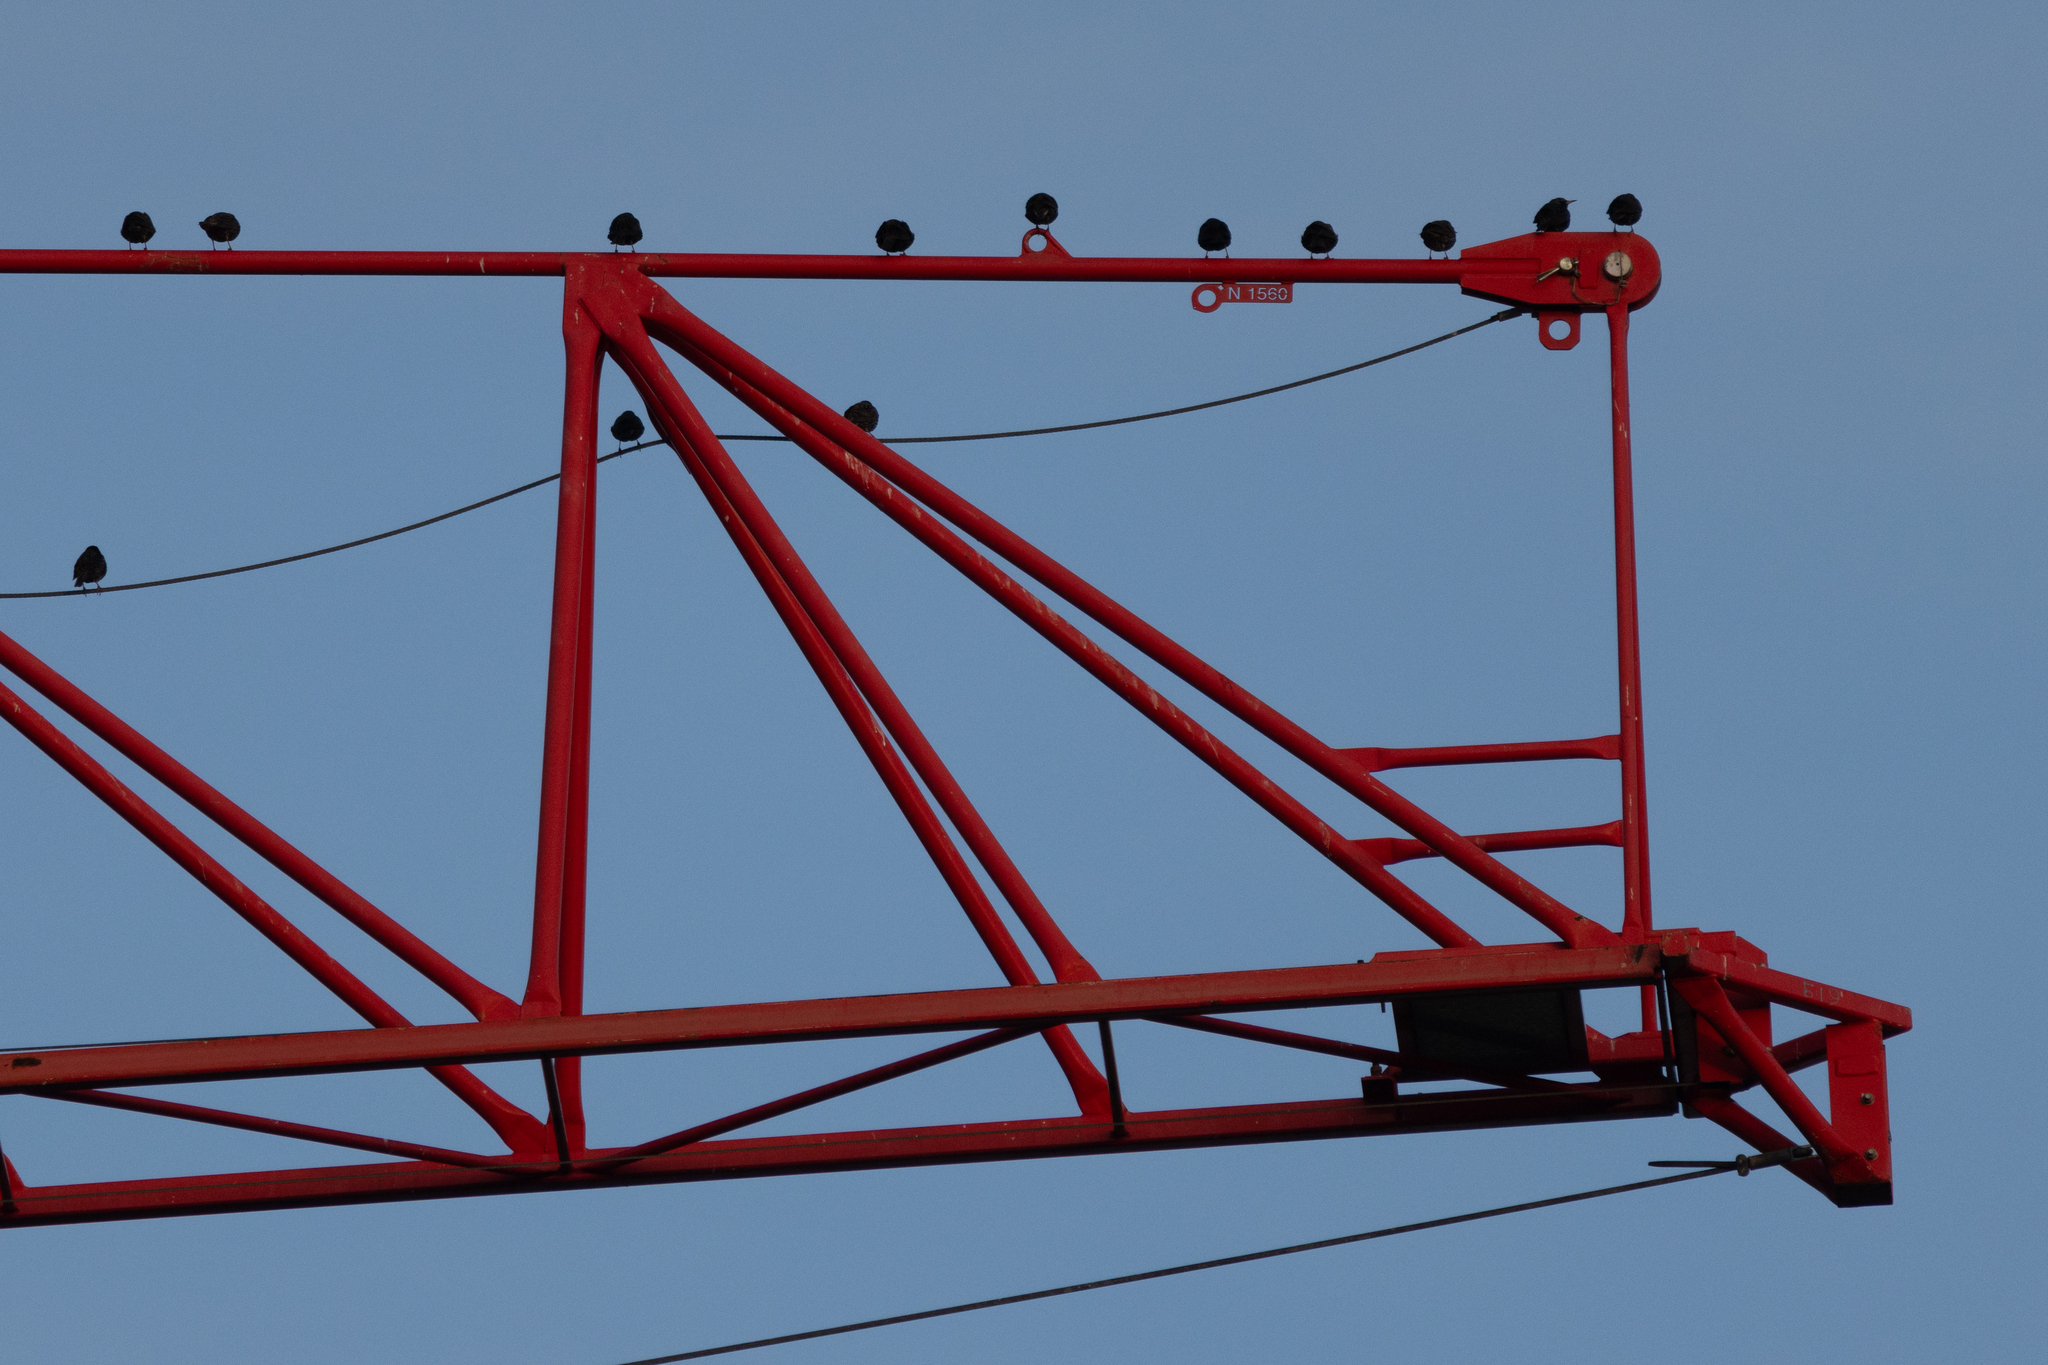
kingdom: Animalia
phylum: Chordata
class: Aves
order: Passeriformes
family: Sturnidae
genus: Sturnus
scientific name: Sturnus vulgaris
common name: Common starling
